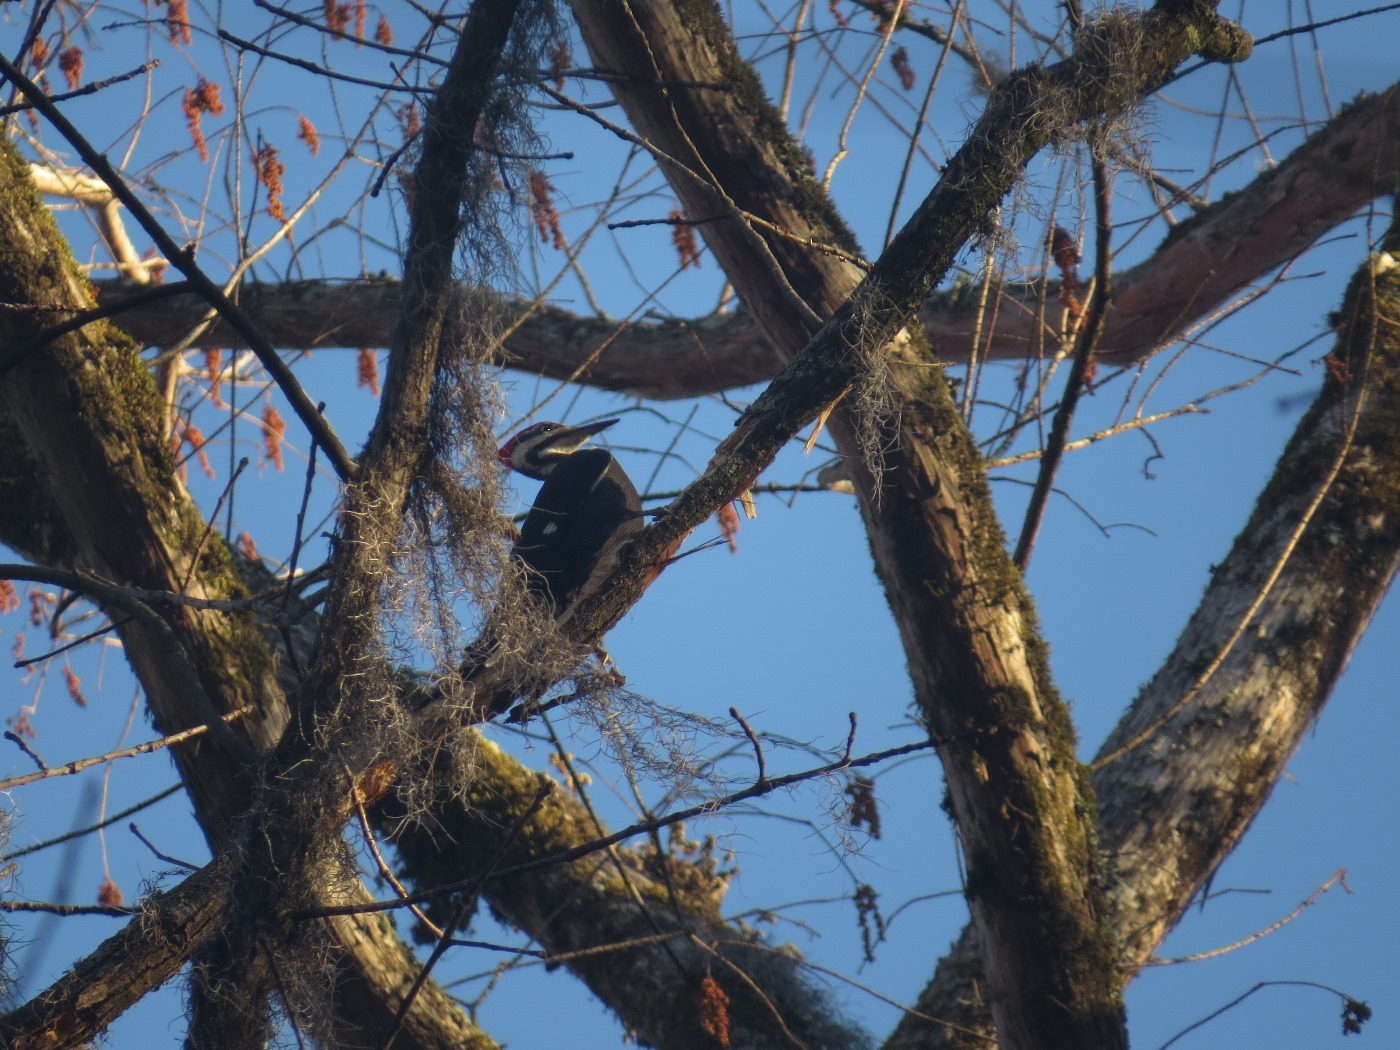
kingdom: Animalia
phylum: Chordata
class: Aves
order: Piciformes
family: Picidae
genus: Dryocopus
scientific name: Dryocopus pileatus
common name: Pileated woodpecker
